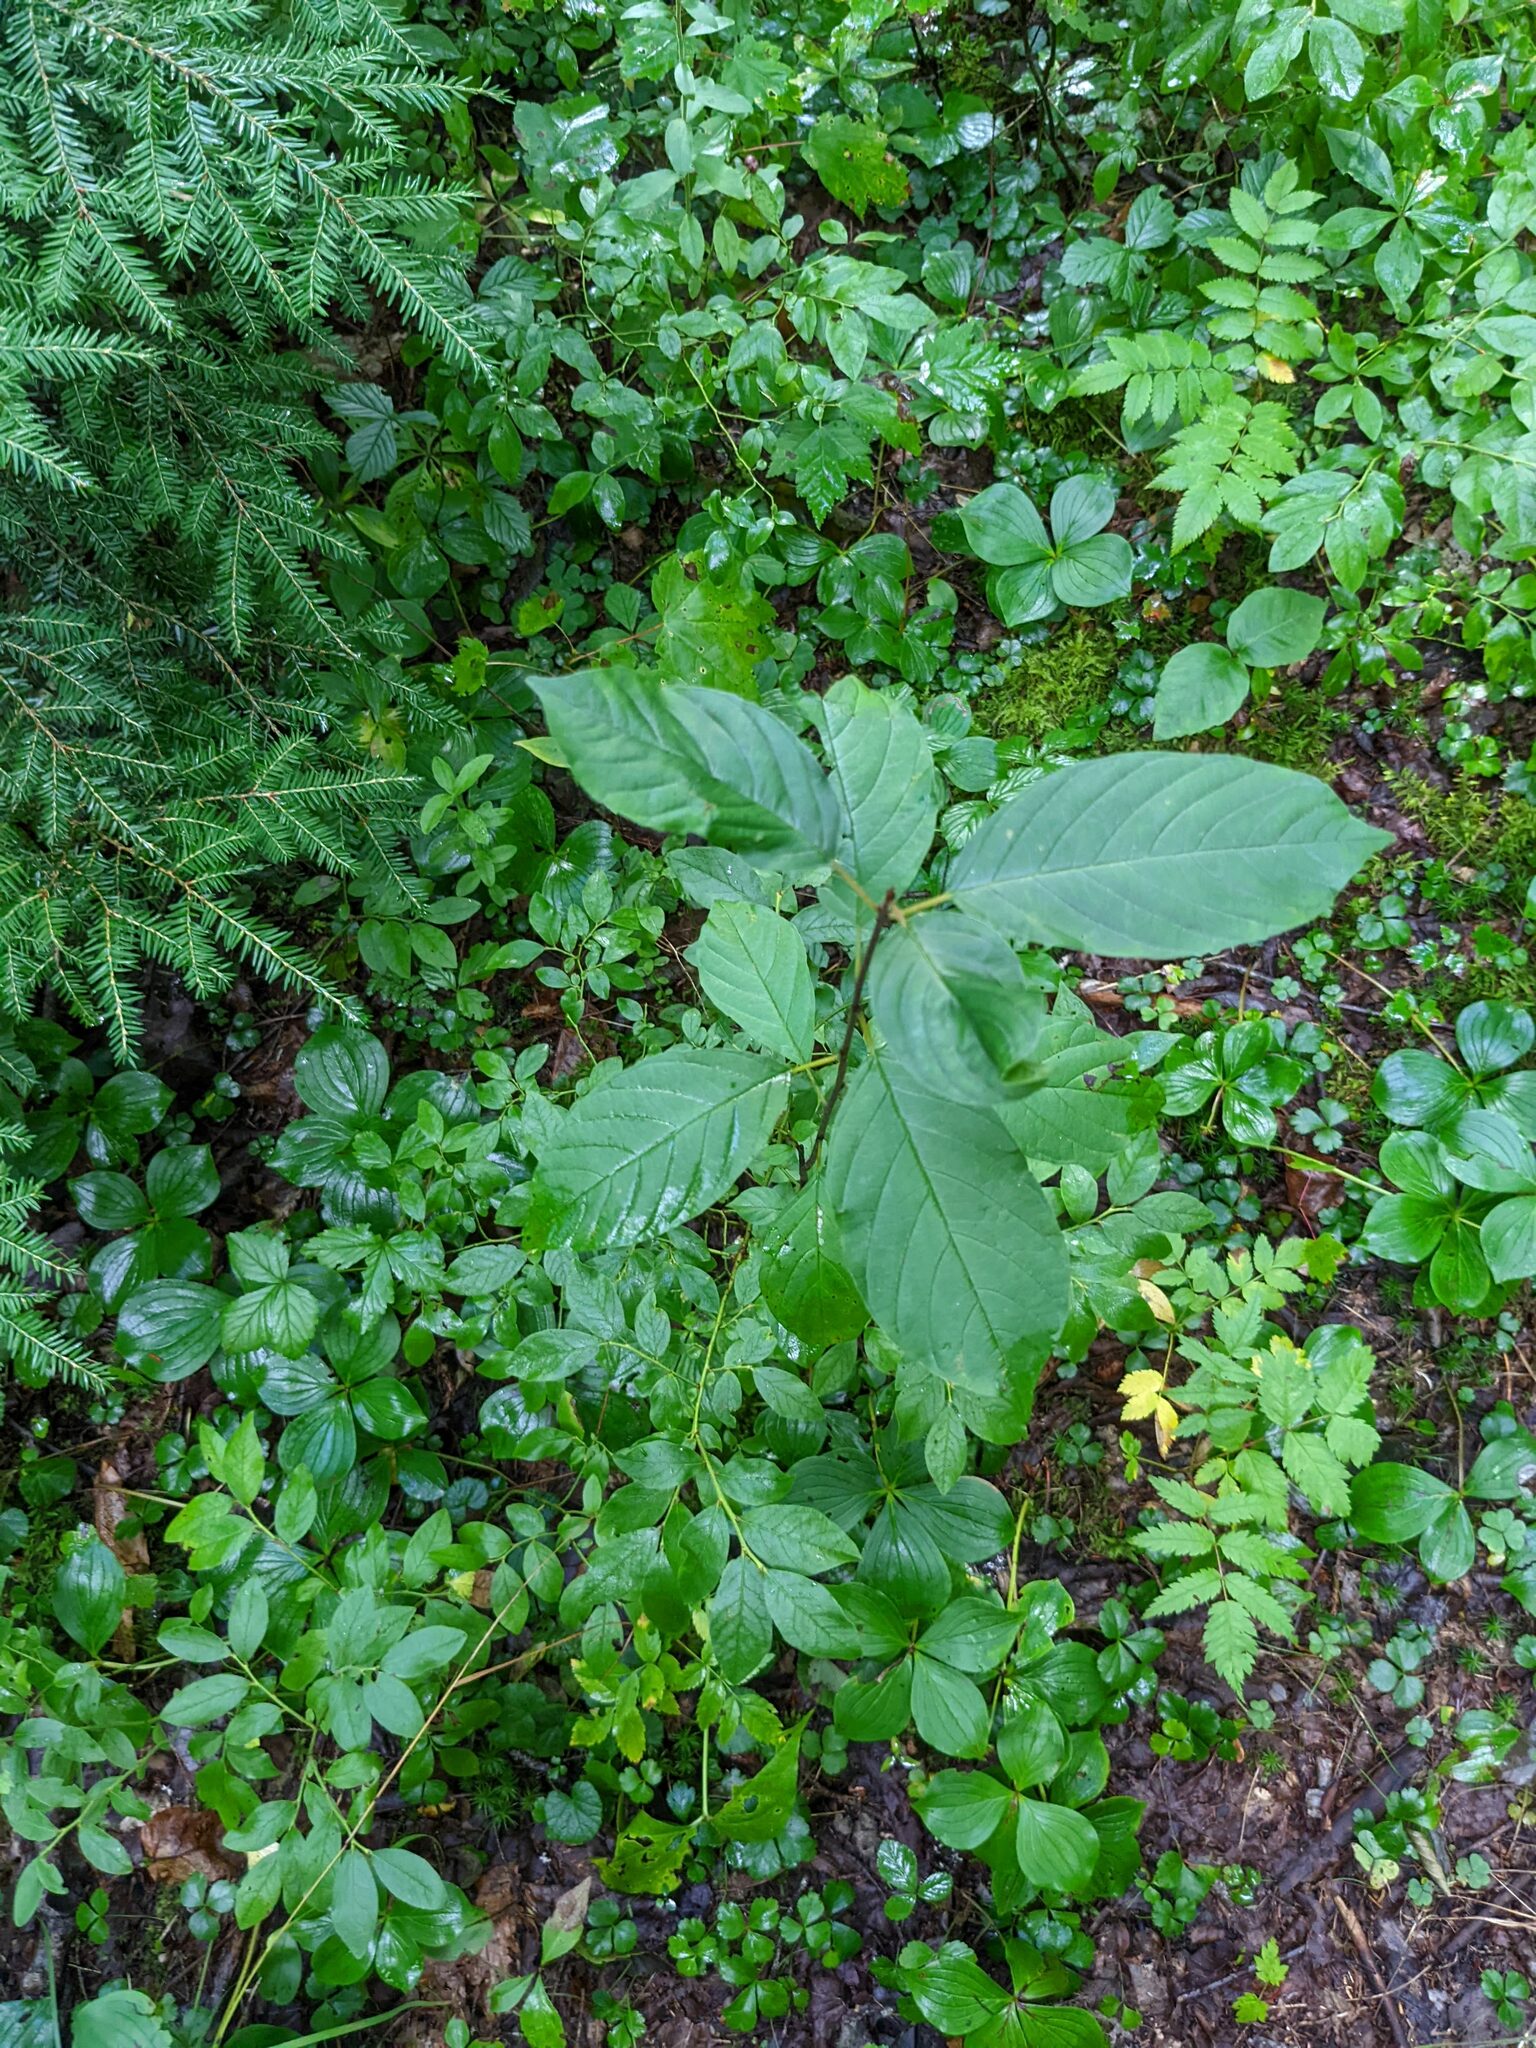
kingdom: Plantae
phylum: Tracheophyta
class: Magnoliopsida
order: Rosales
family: Rhamnaceae
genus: Frangula
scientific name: Frangula alnus
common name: Alder buckthorn
